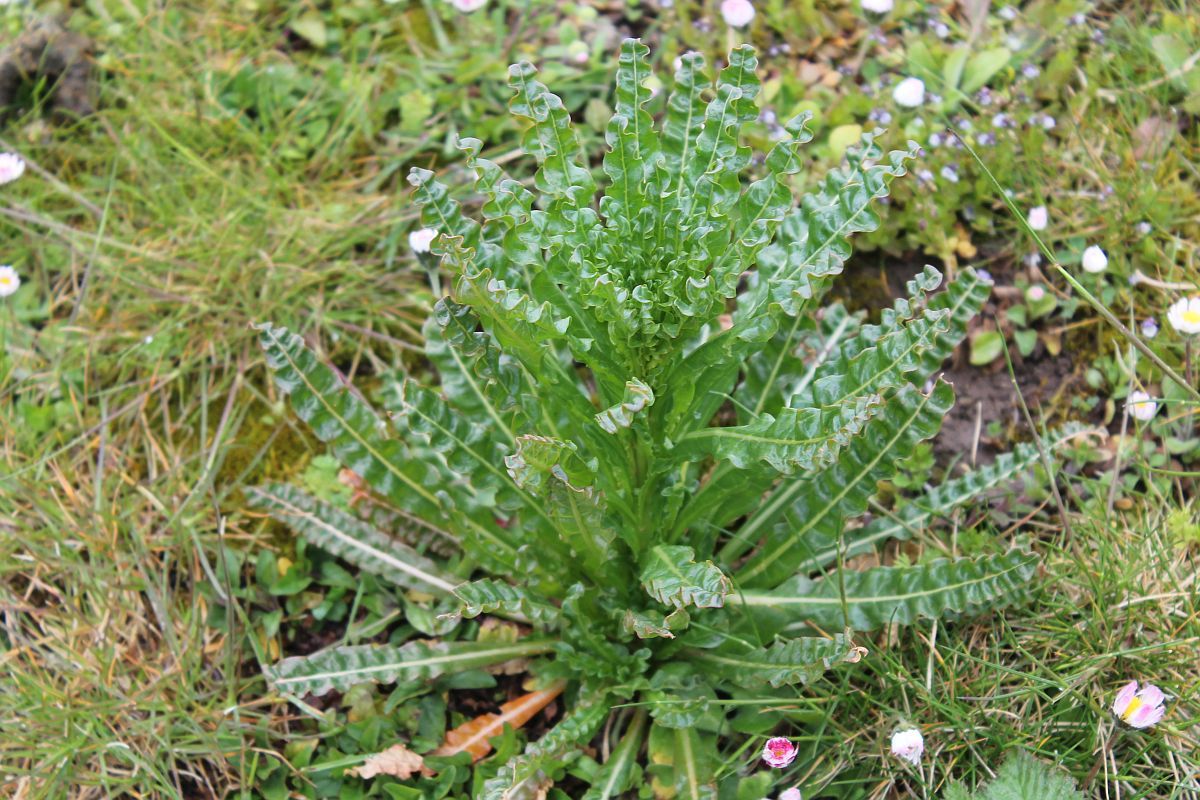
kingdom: Plantae
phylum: Tracheophyta
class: Magnoliopsida
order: Brassicales
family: Resedaceae
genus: Reseda
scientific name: Reseda luteola
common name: Weld
